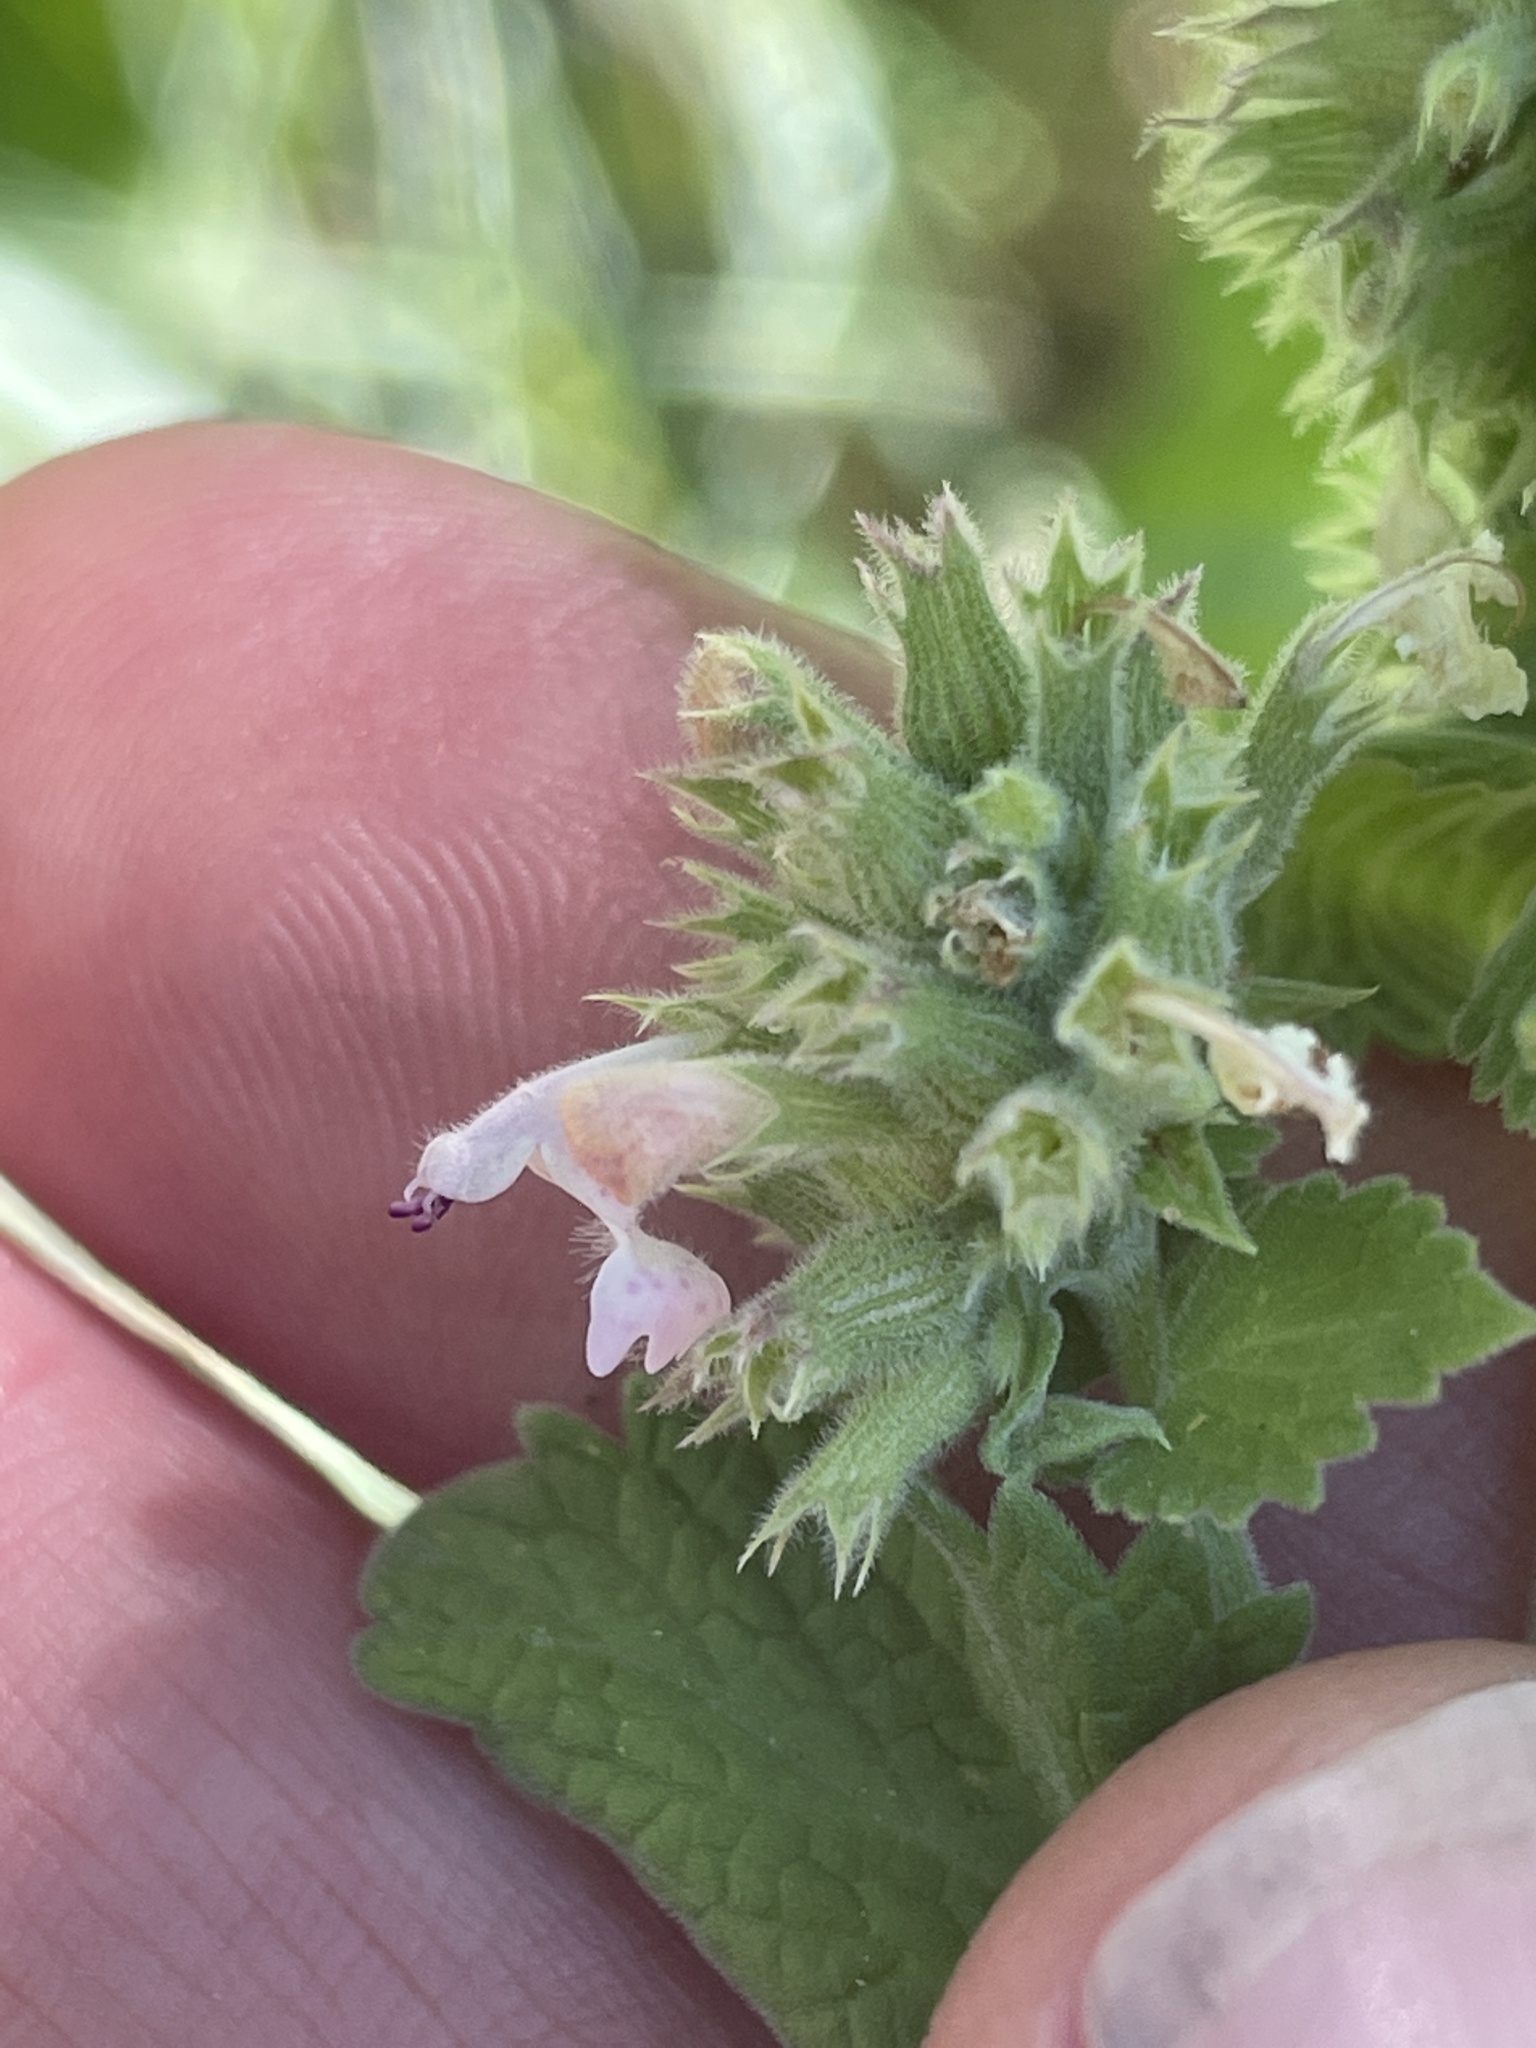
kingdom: Plantae
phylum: Tracheophyta
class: Magnoliopsida
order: Lamiales
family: Lamiaceae
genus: Nepeta
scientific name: Nepeta cataria
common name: Catnip
